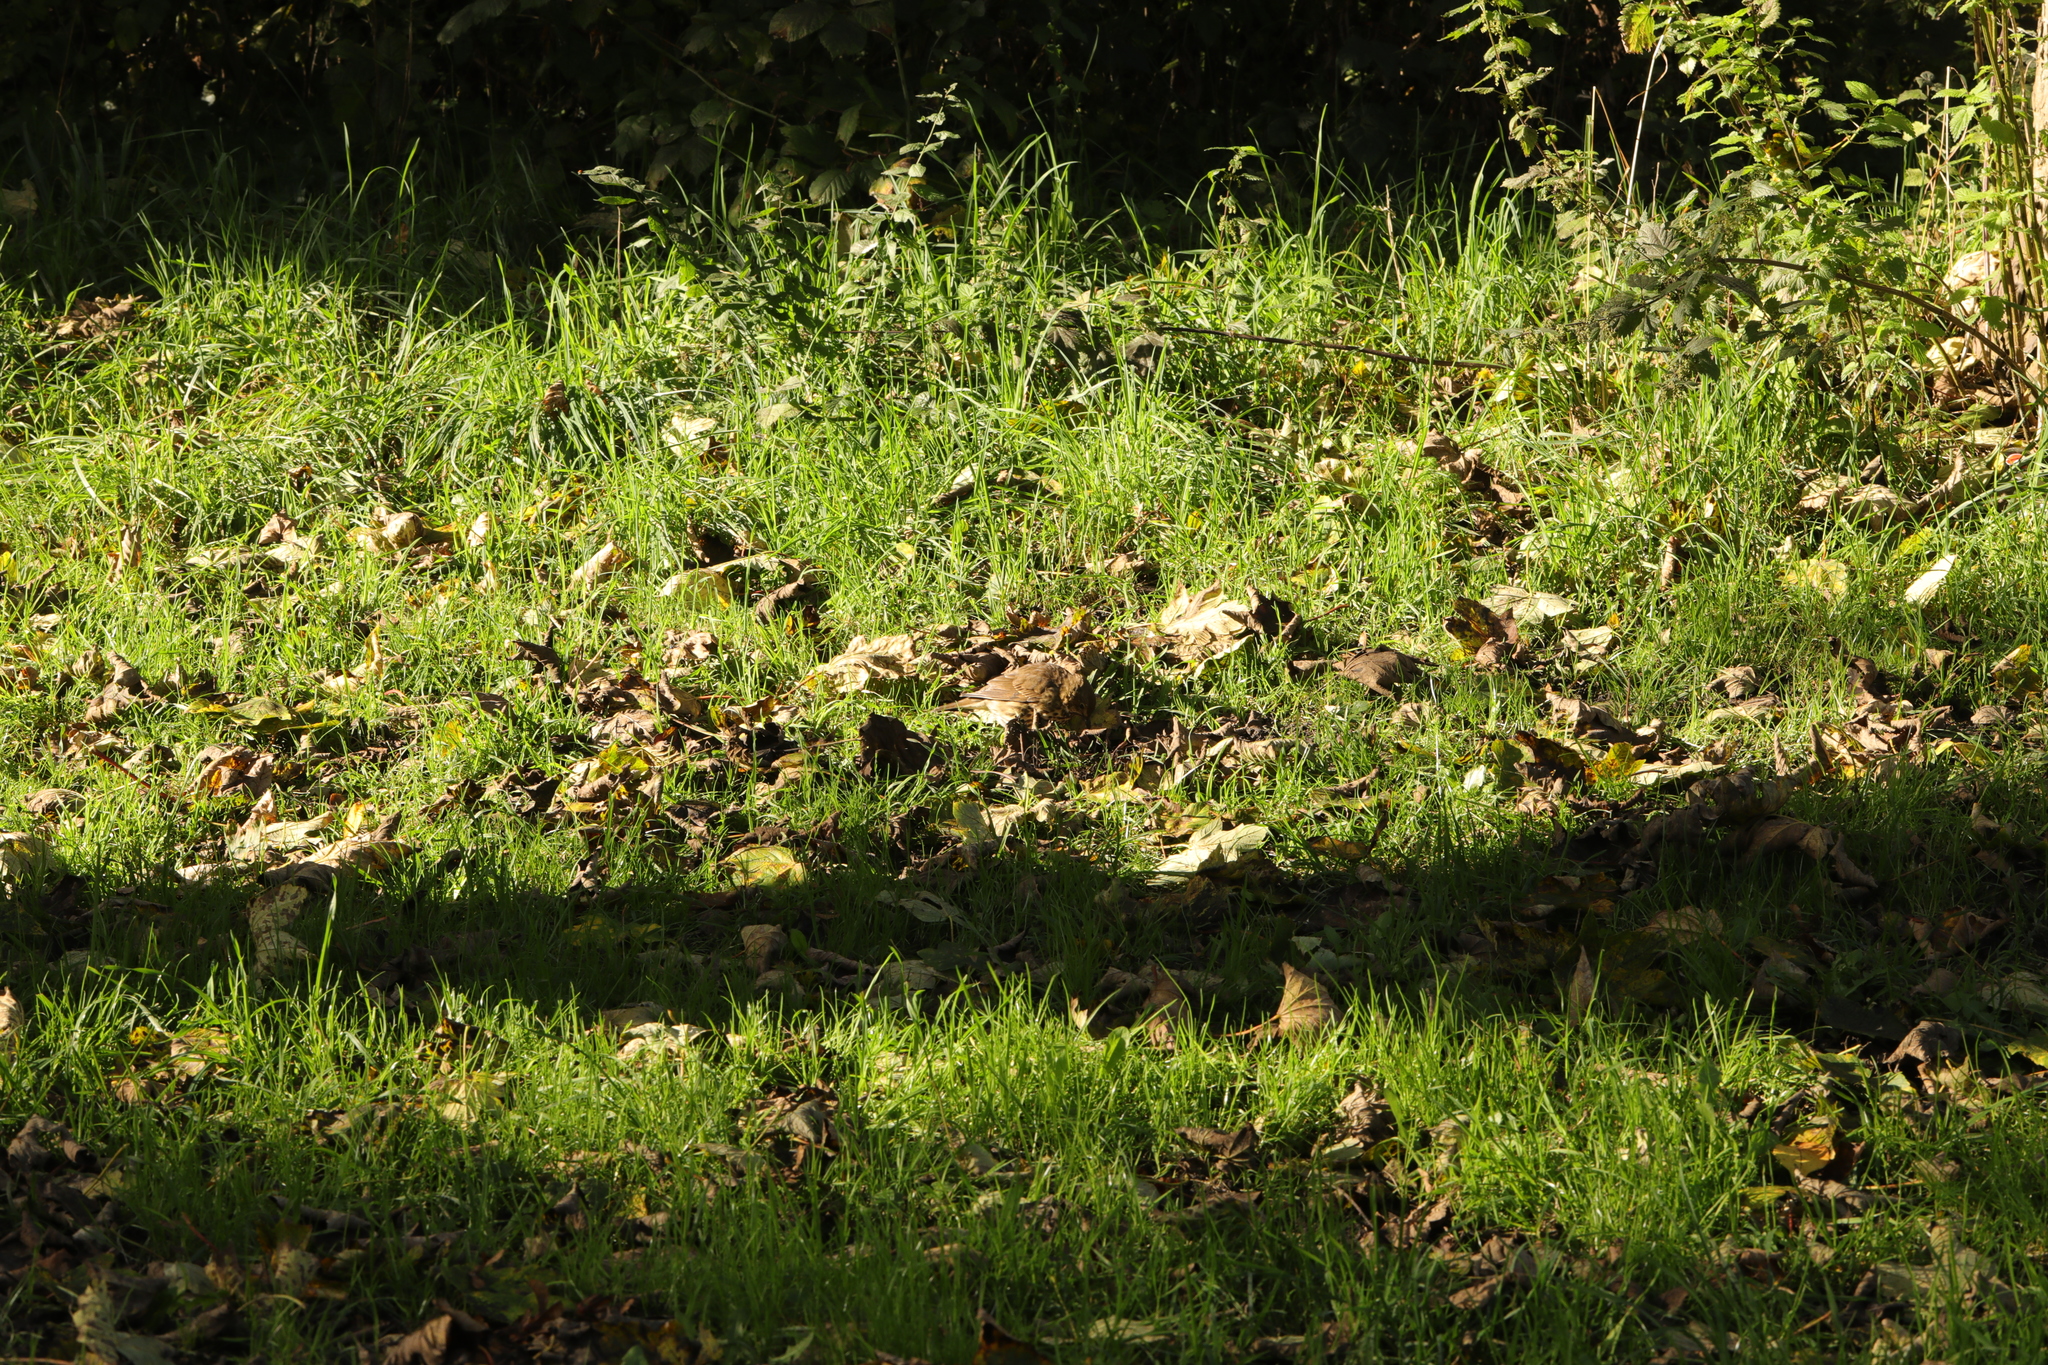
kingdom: Animalia
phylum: Chordata
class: Aves
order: Passeriformes
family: Turdidae
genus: Turdus
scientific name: Turdus philomelos
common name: Song thrush
